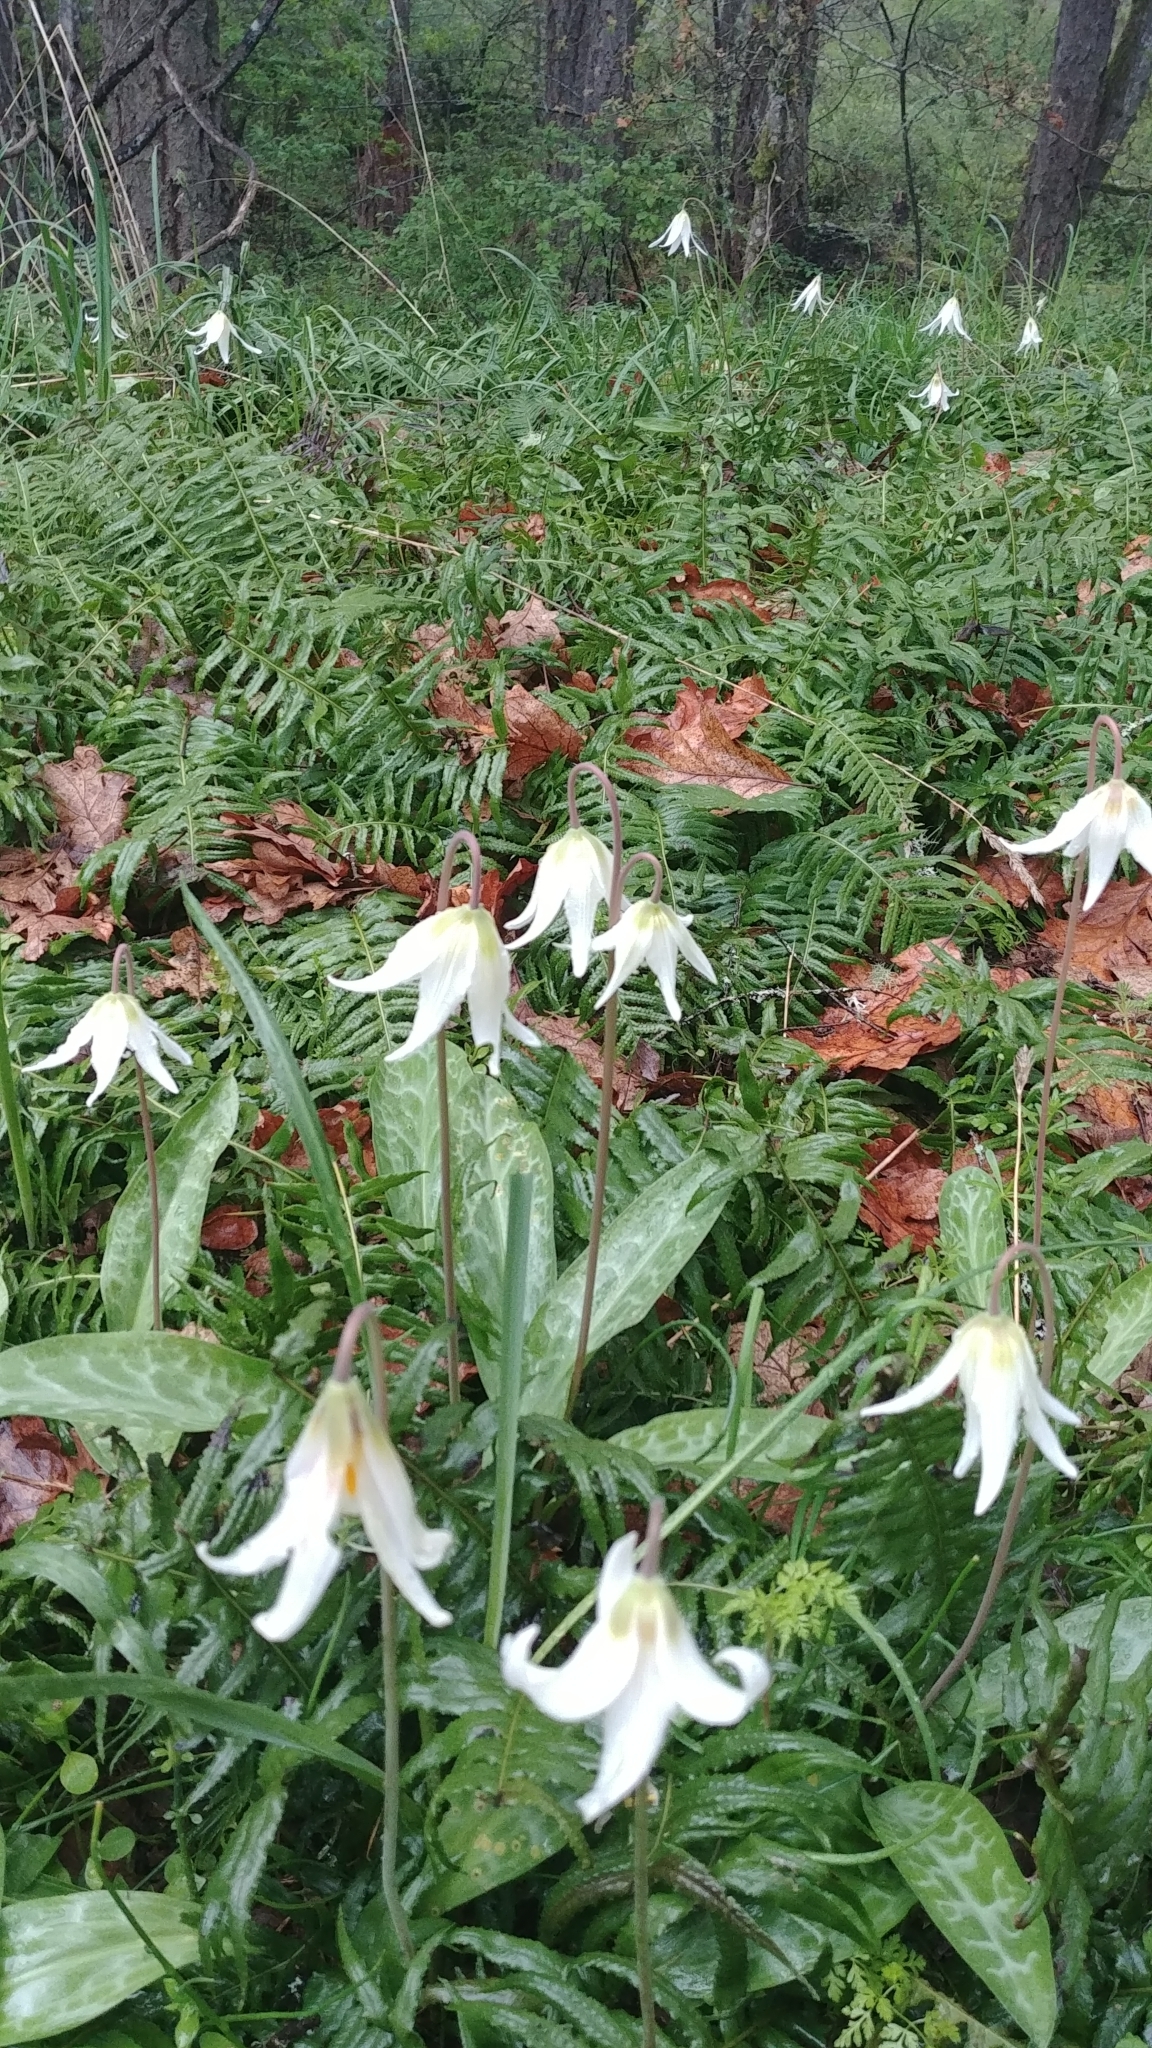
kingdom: Plantae
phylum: Tracheophyta
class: Liliopsida
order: Liliales
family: Liliaceae
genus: Erythronium
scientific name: Erythronium oregonum
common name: Giant adder's-tongue
